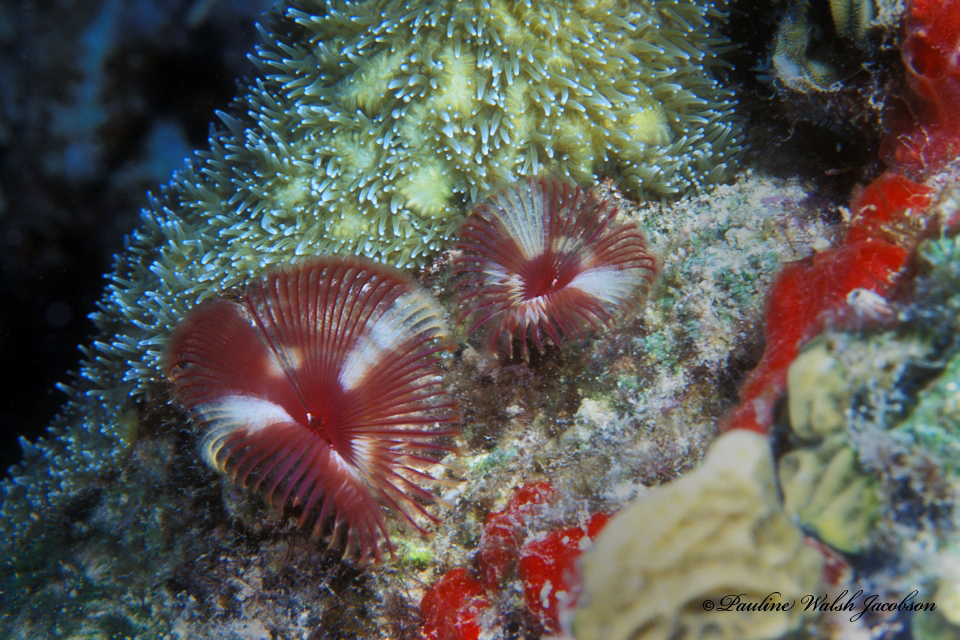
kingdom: Animalia
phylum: Annelida
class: Polychaeta
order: Sabellida
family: Sabellidae
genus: Anamobaea
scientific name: Anamobaea orstedii
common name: Split-crown feather duster
